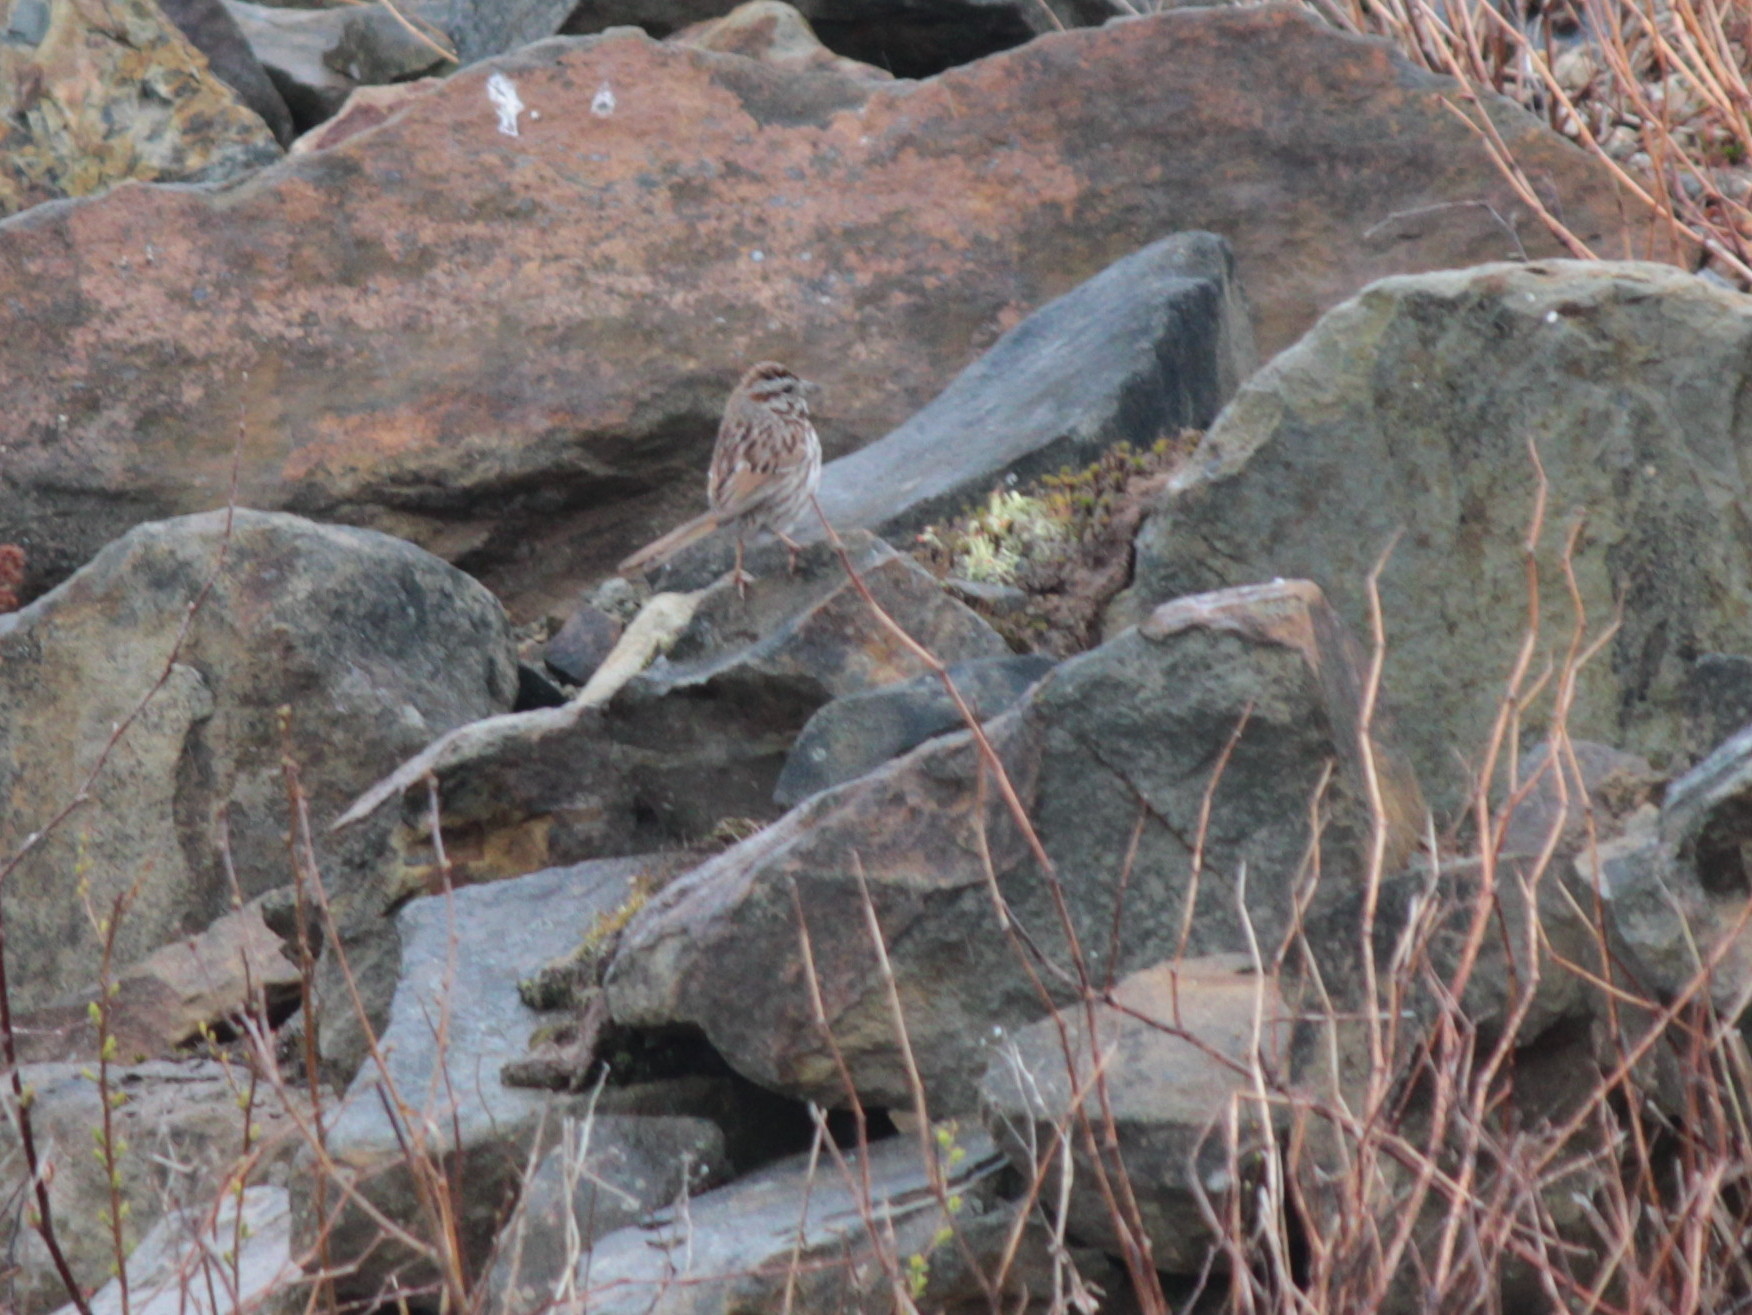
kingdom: Animalia
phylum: Chordata
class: Aves
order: Passeriformes
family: Passerellidae
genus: Melospiza
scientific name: Melospiza melodia
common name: Song sparrow
